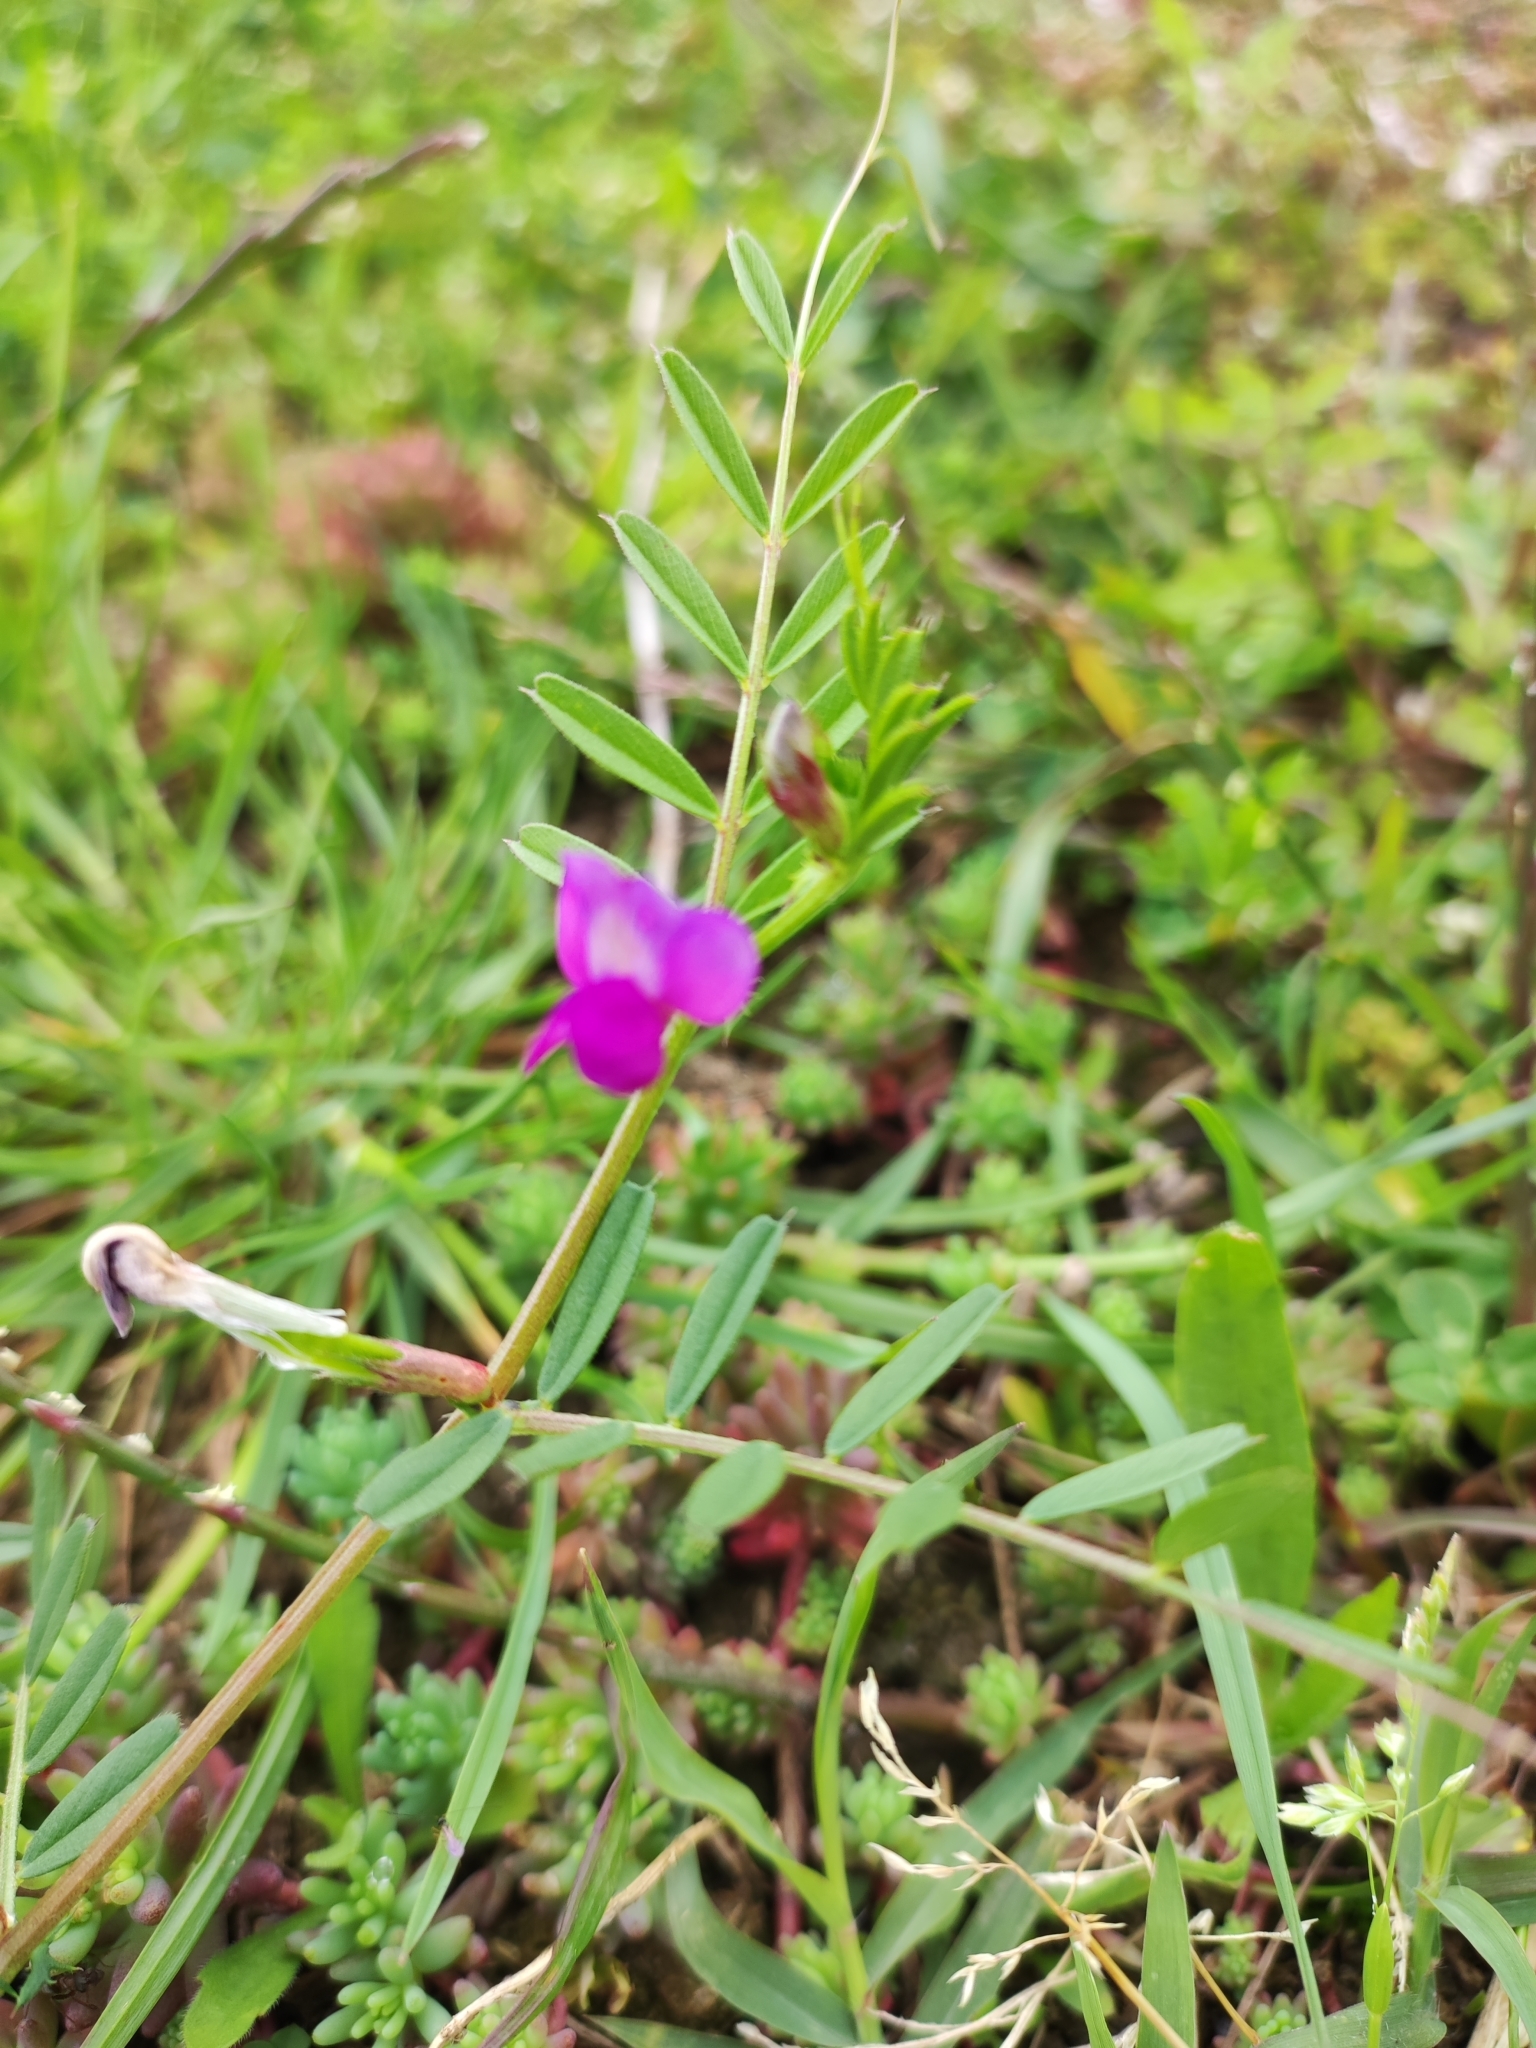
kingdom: Plantae
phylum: Tracheophyta
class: Magnoliopsida
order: Fabales
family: Fabaceae
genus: Vicia
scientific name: Vicia sativa
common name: Garden vetch
